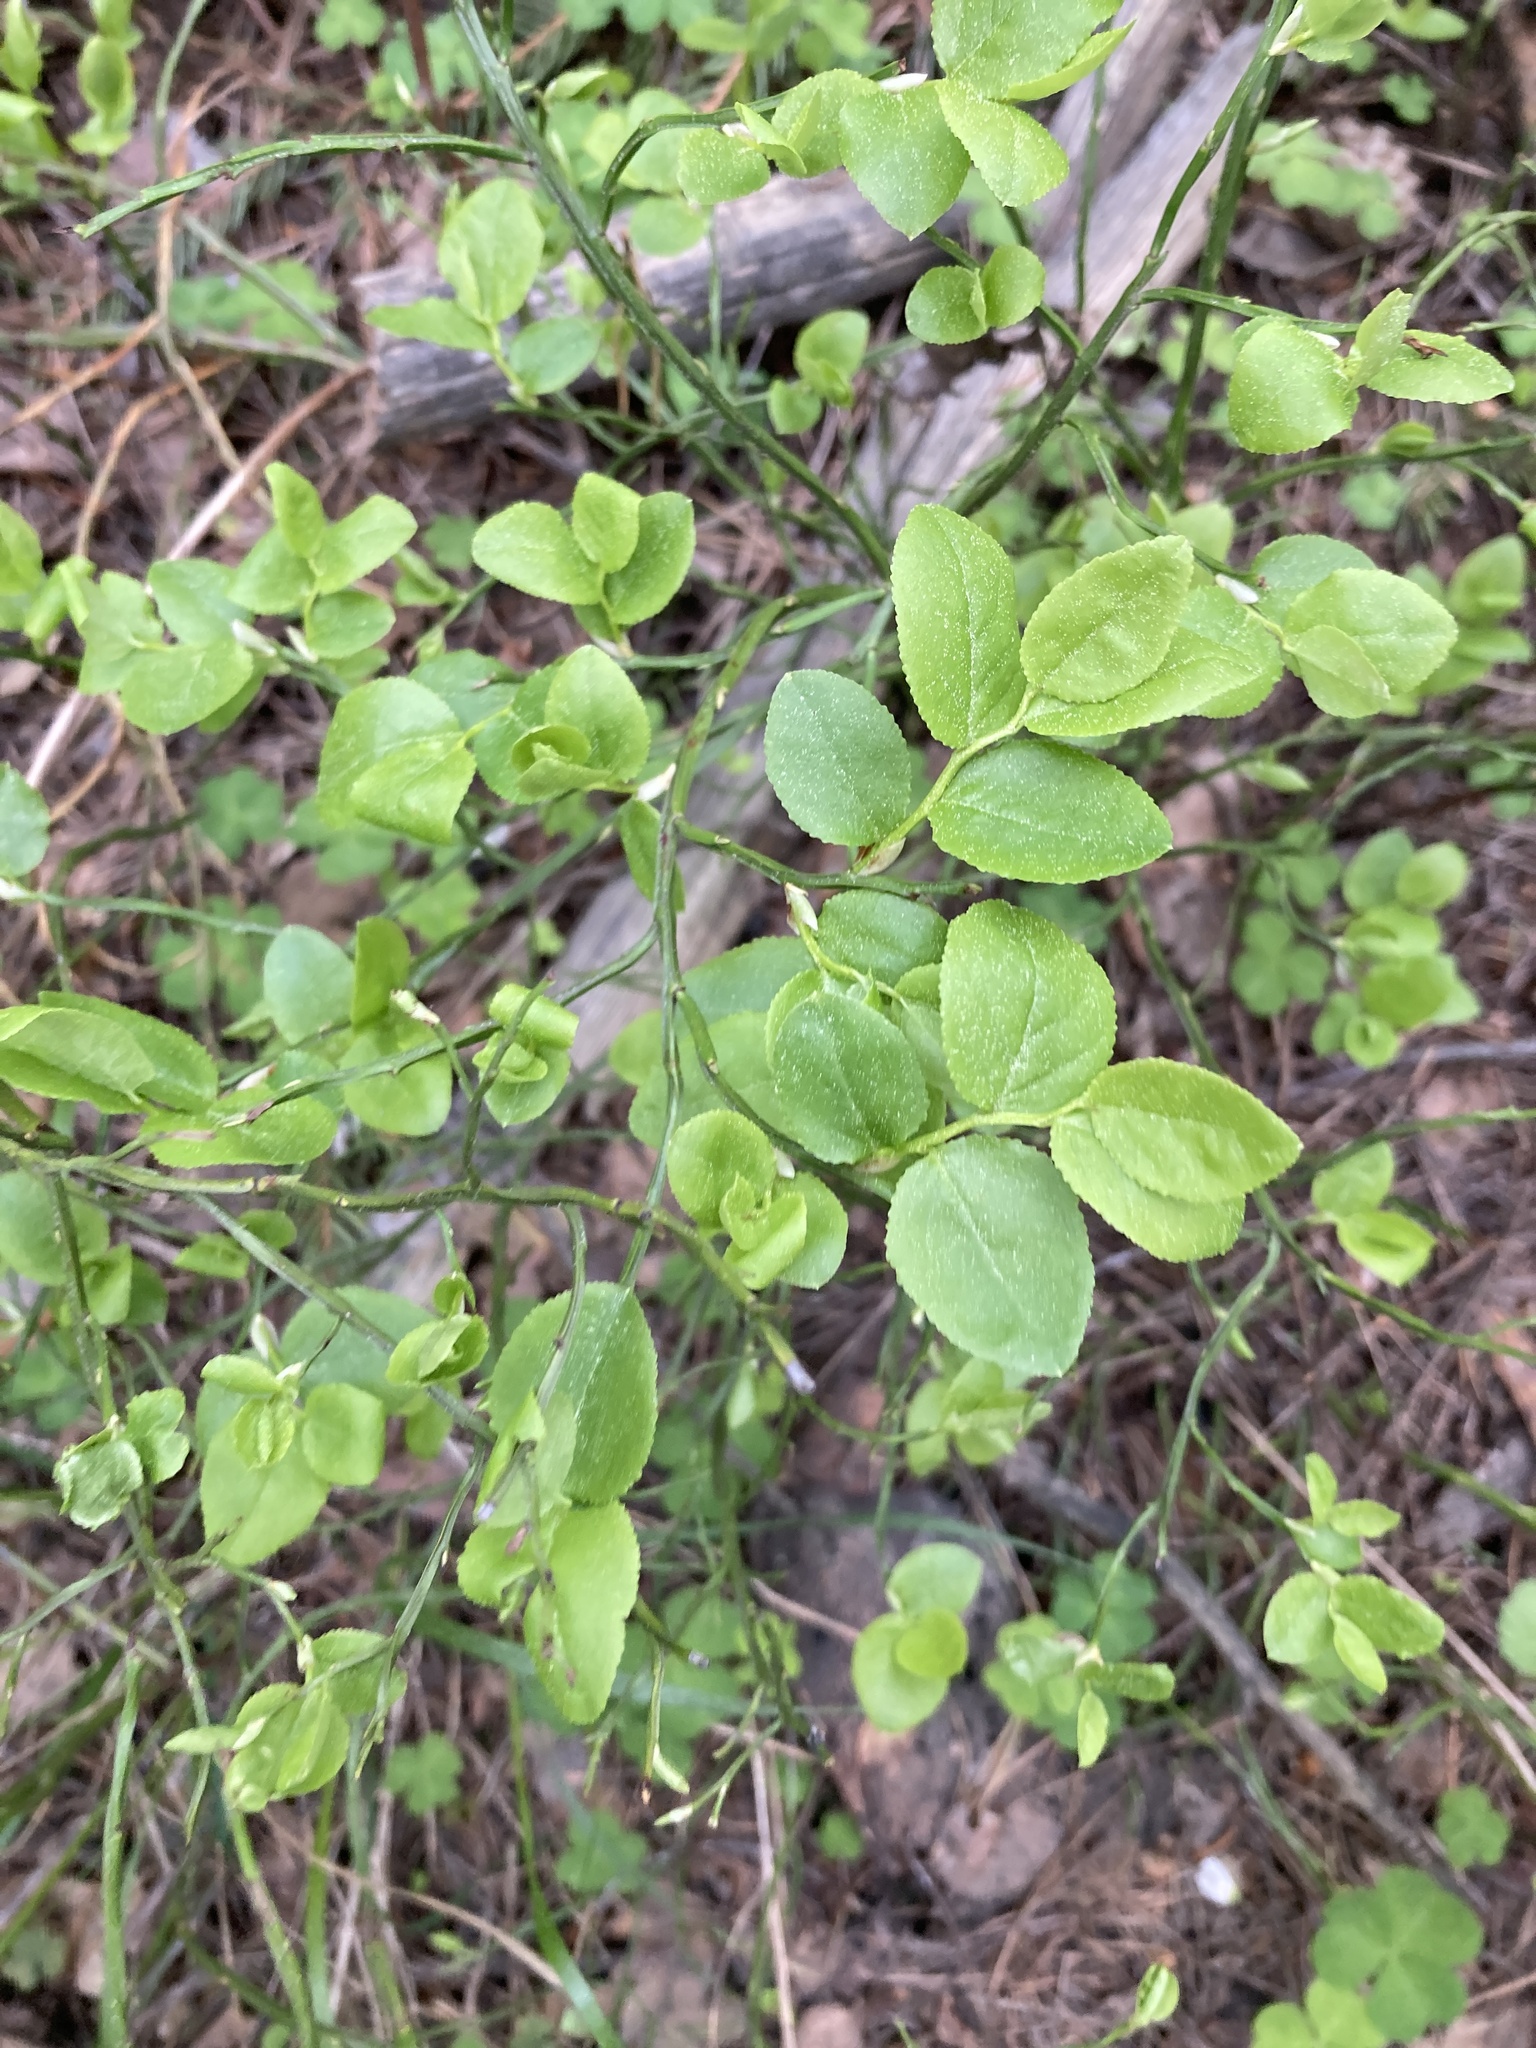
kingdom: Plantae
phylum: Tracheophyta
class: Magnoliopsida
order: Ericales
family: Ericaceae
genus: Vaccinium
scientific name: Vaccinium myrtillus
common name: Bilberry
